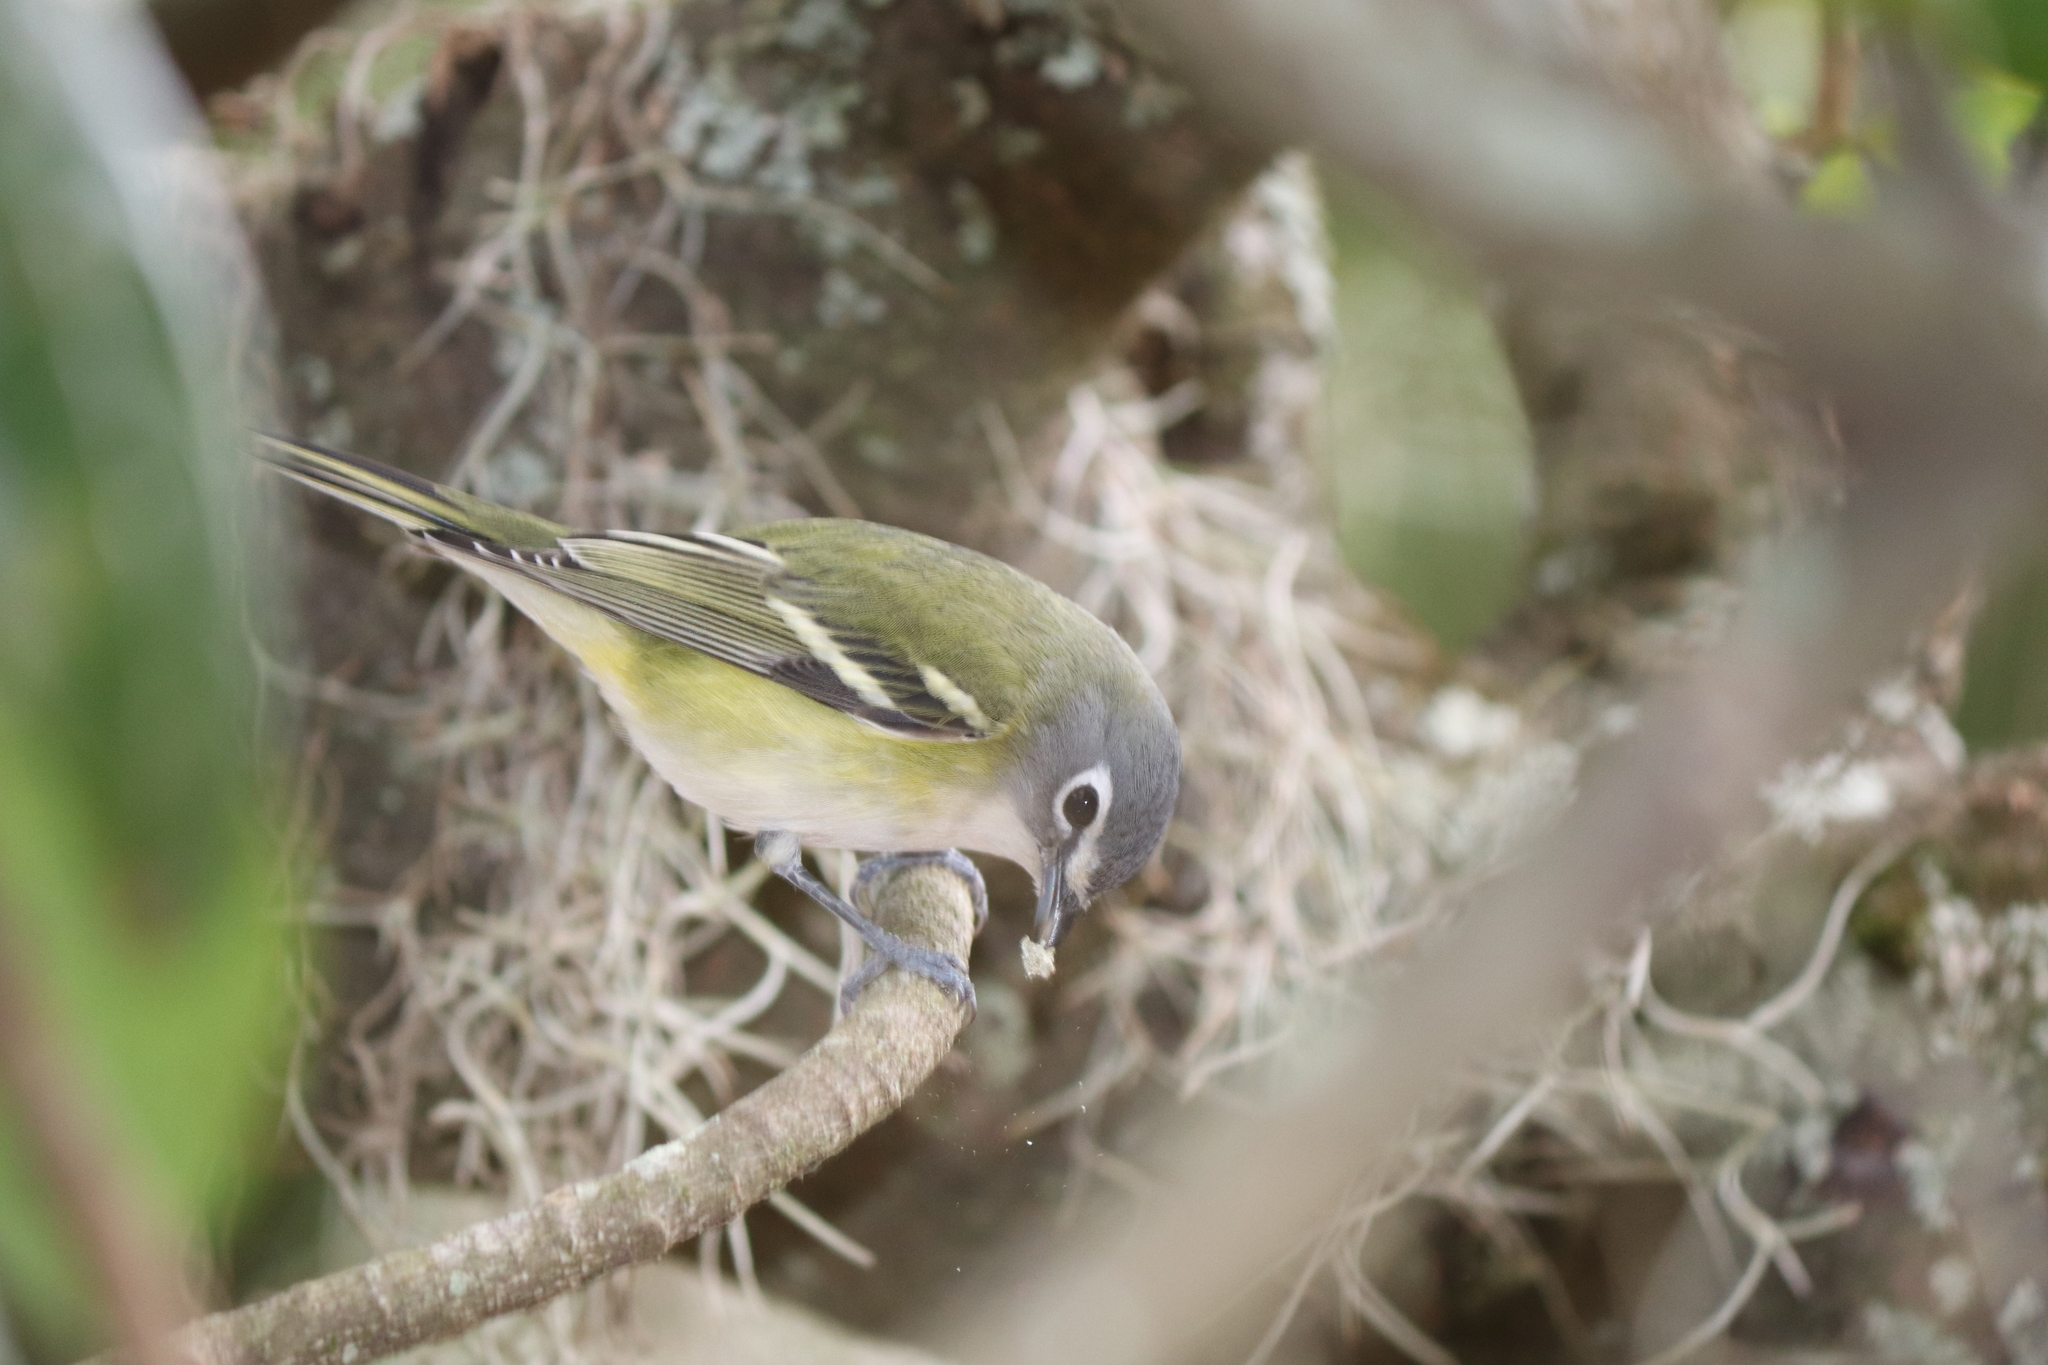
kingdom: Animalia
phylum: Chordata
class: Aves
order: Passeriformes
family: Vireonidae
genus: Vireo
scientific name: Vireo solitarius
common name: Blue-headed vireo
